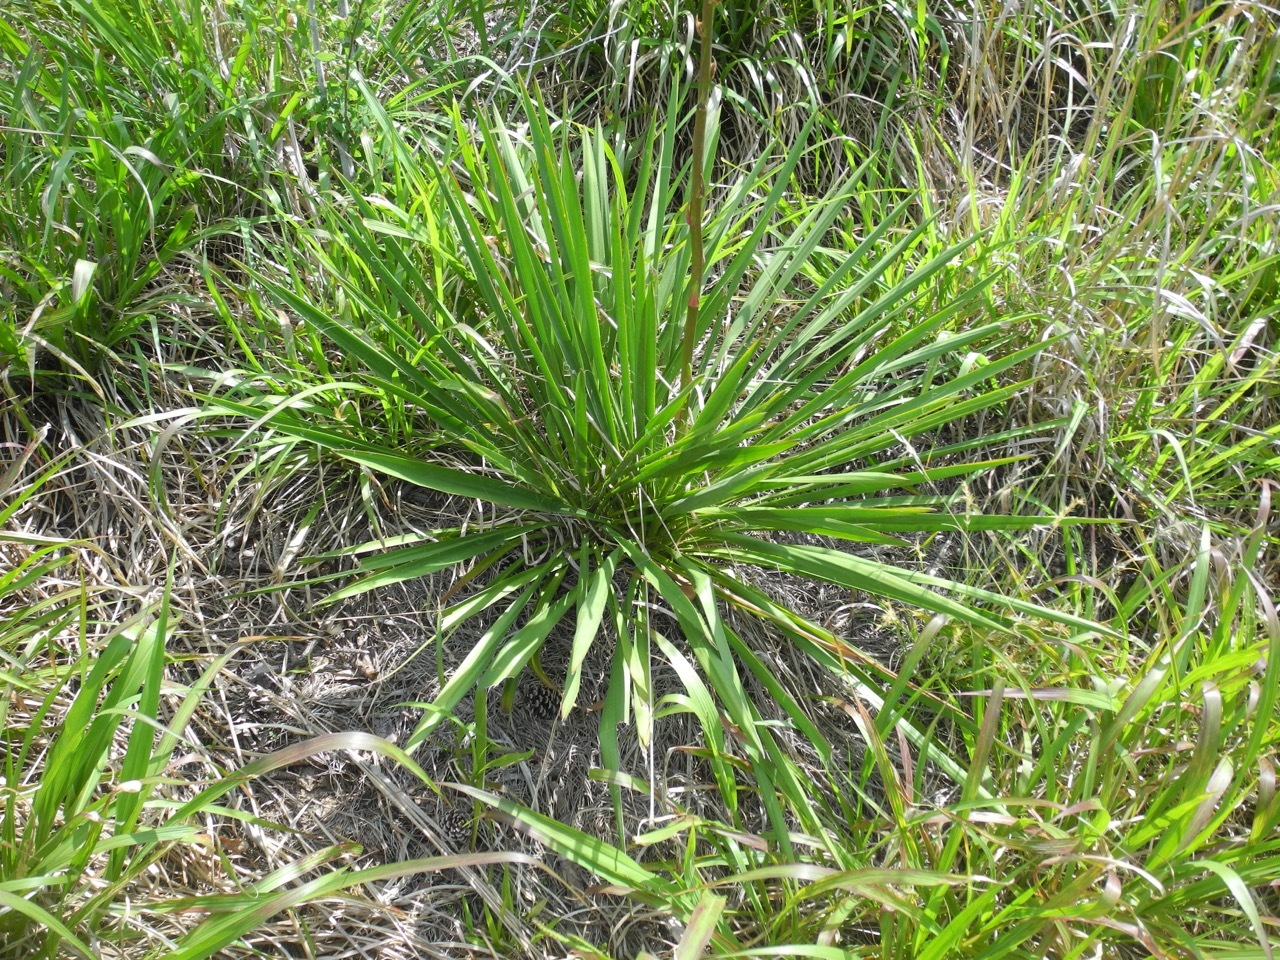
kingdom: Plantae
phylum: Tracheophyta
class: Liliopsida
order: Asparagales
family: Asparagaceae
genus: Yucca
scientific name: Yucca filamentosa
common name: Adam's-needle
